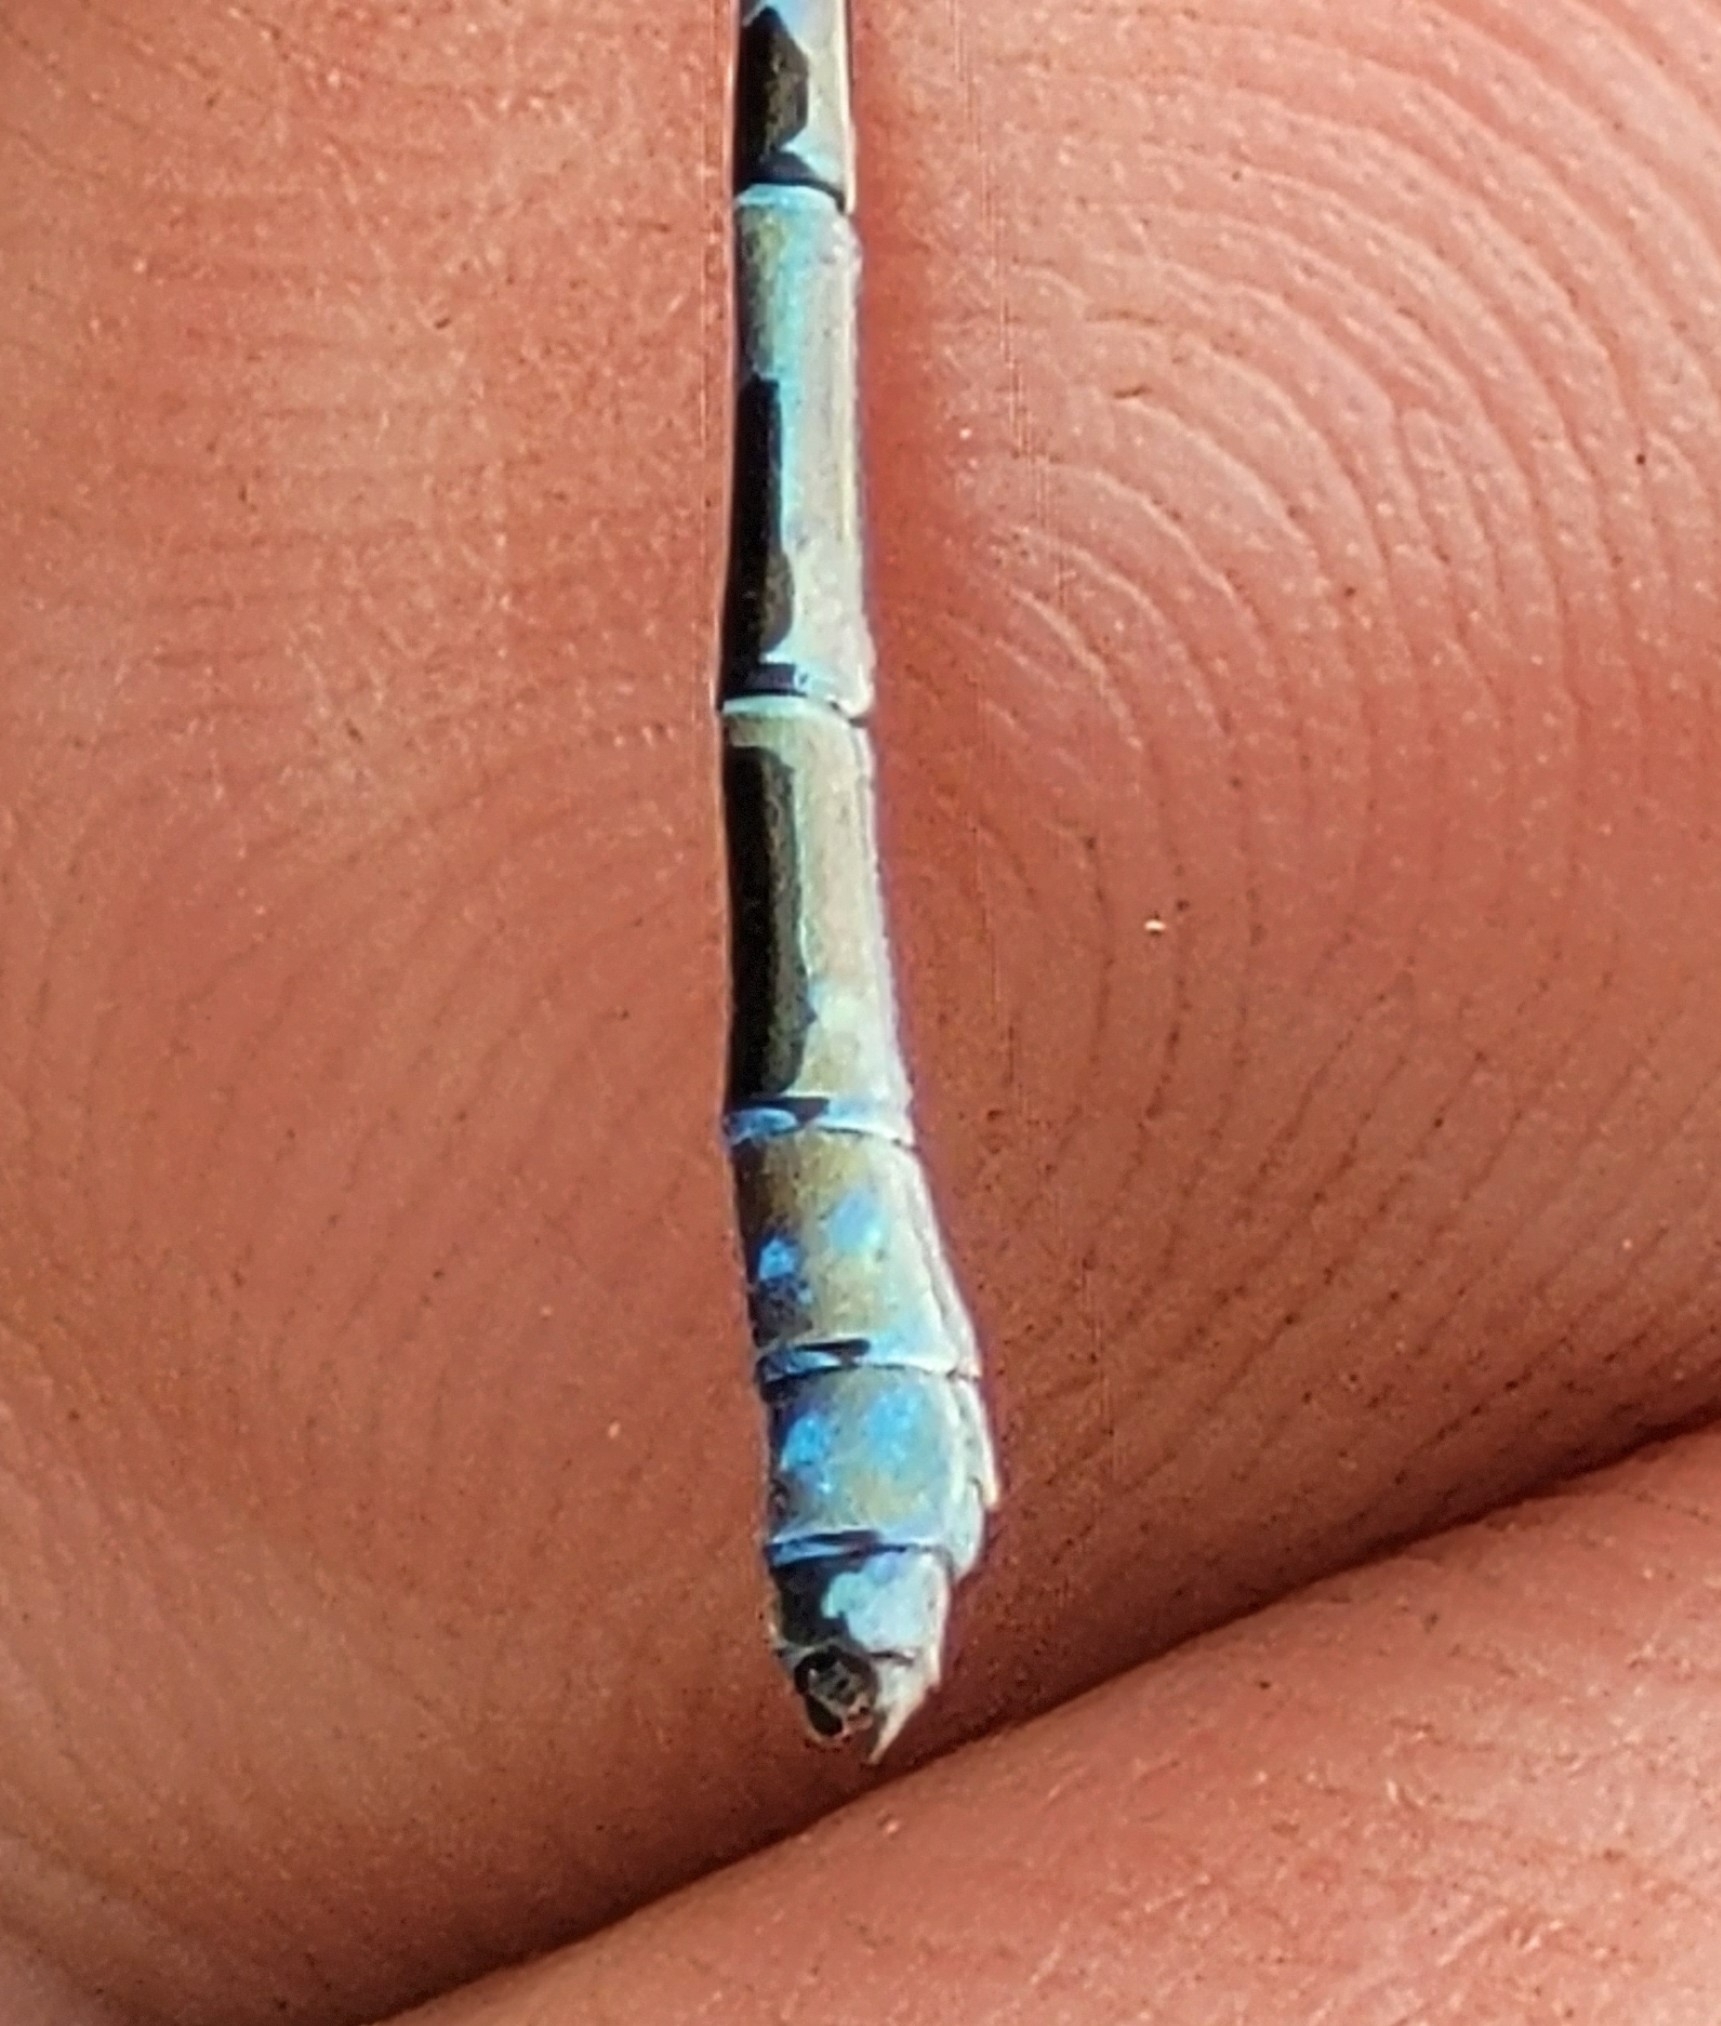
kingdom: Animalia
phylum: Arthropoda
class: Insecta
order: Odonata
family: Coenagrionidae
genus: Enallagma
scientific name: Enallagma boreale
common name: Boreal bluet
